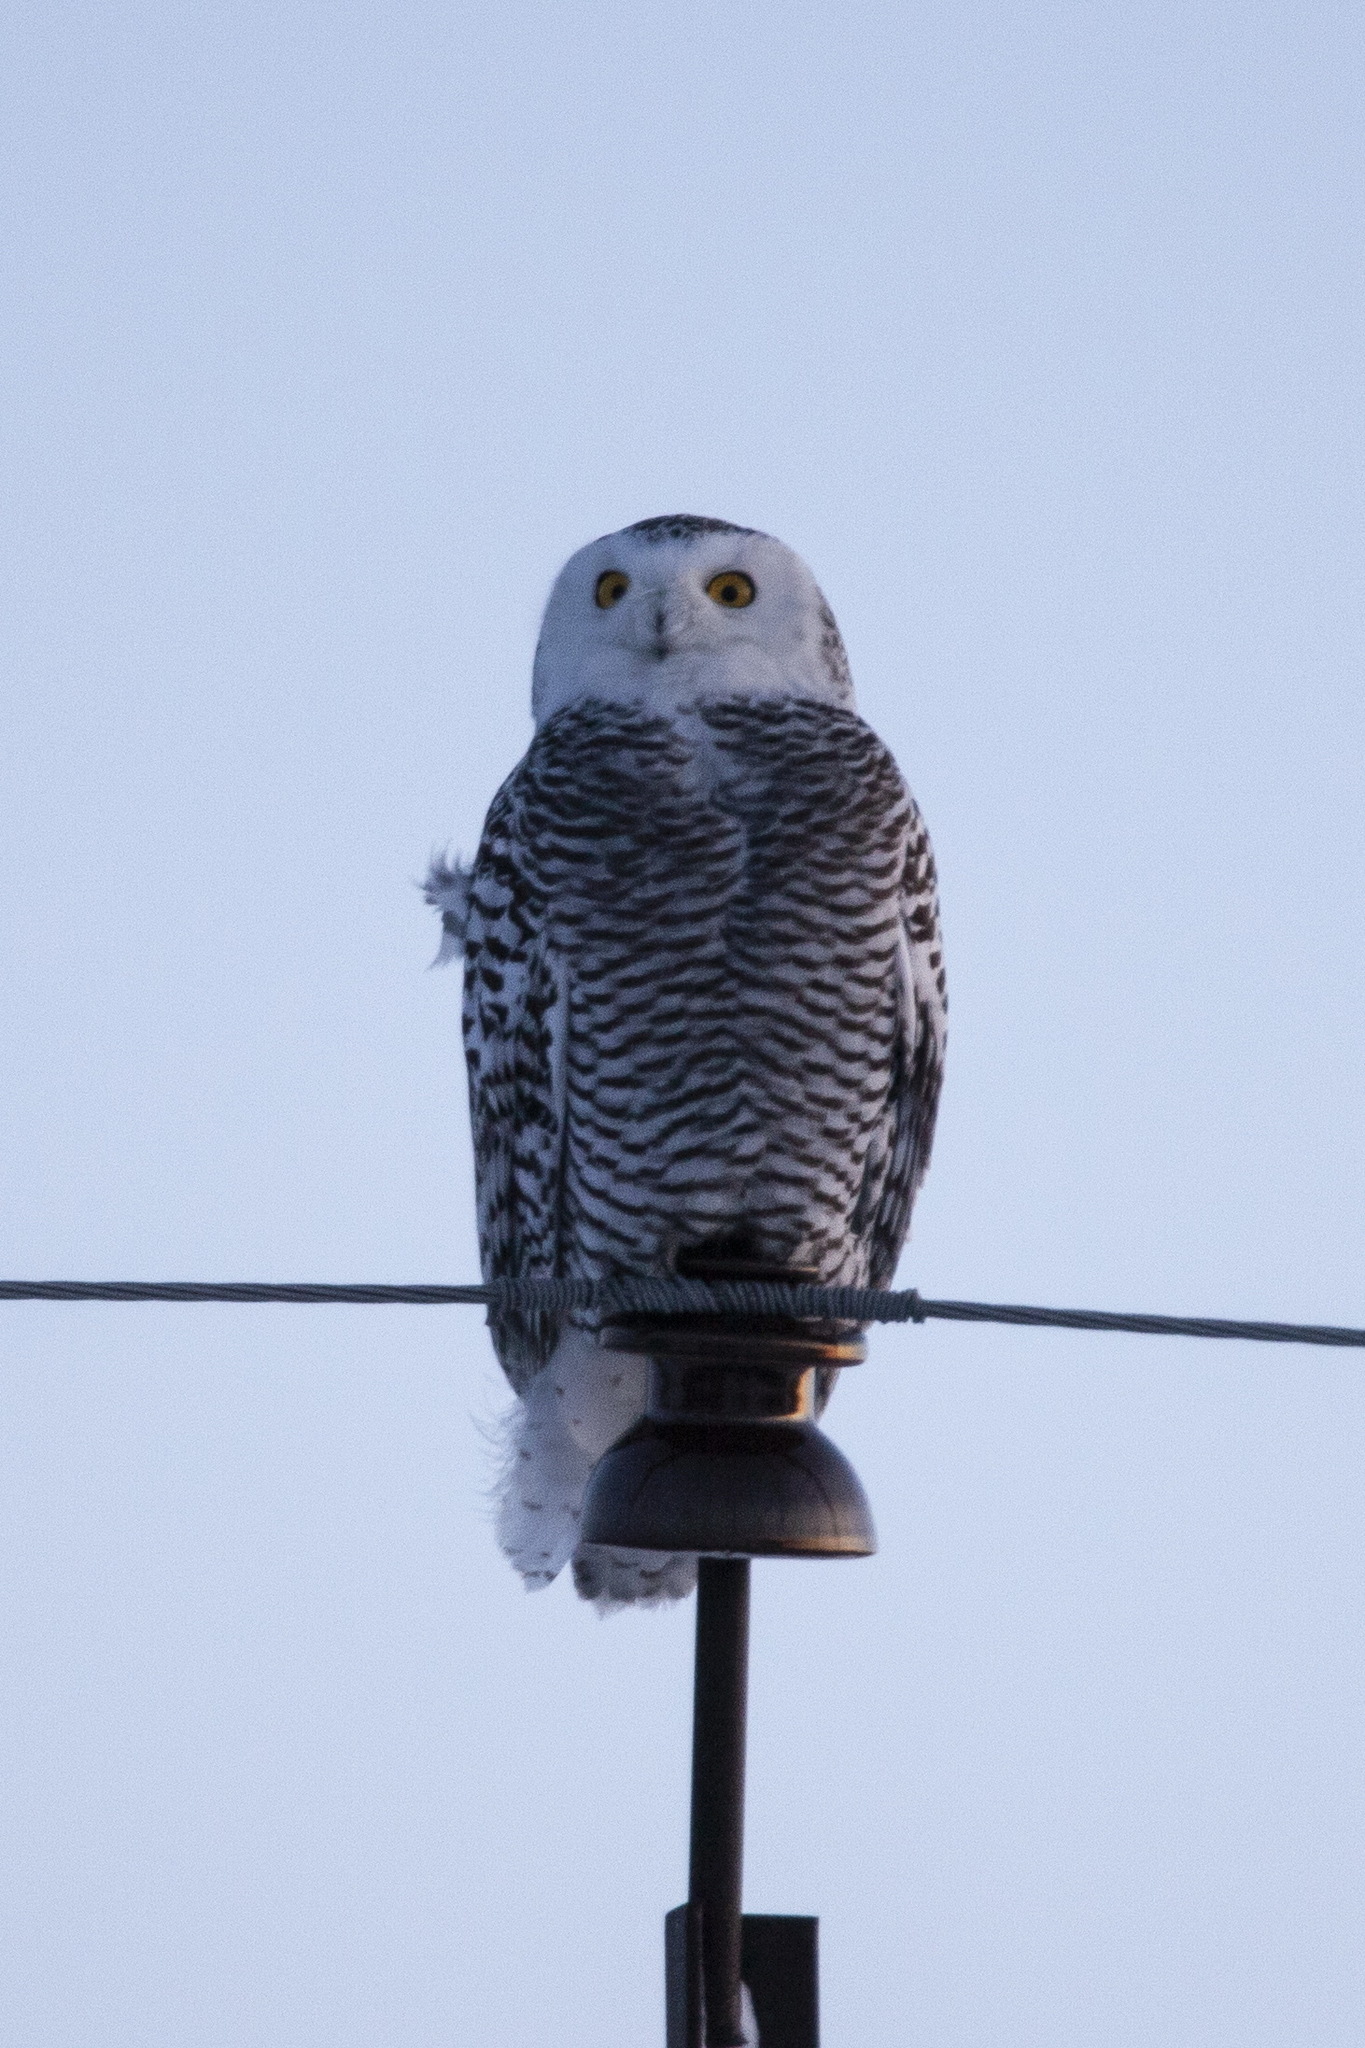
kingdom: Animalia
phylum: Chordata
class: Aves
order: Strigiformes
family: Strigidae
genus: Bubo
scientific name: Bubo scandiacus
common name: Snowy owl
